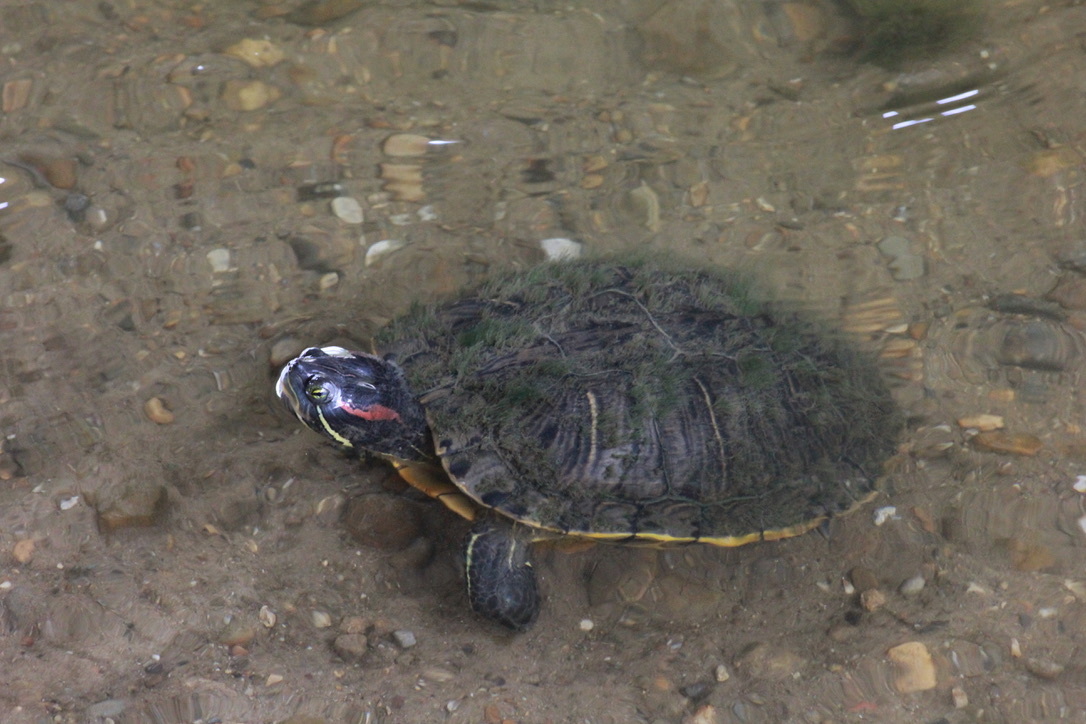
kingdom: Animalia
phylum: Chordata
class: Testudines
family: Emydidae
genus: Trachemys
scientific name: Trachemys scripta
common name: Slider
